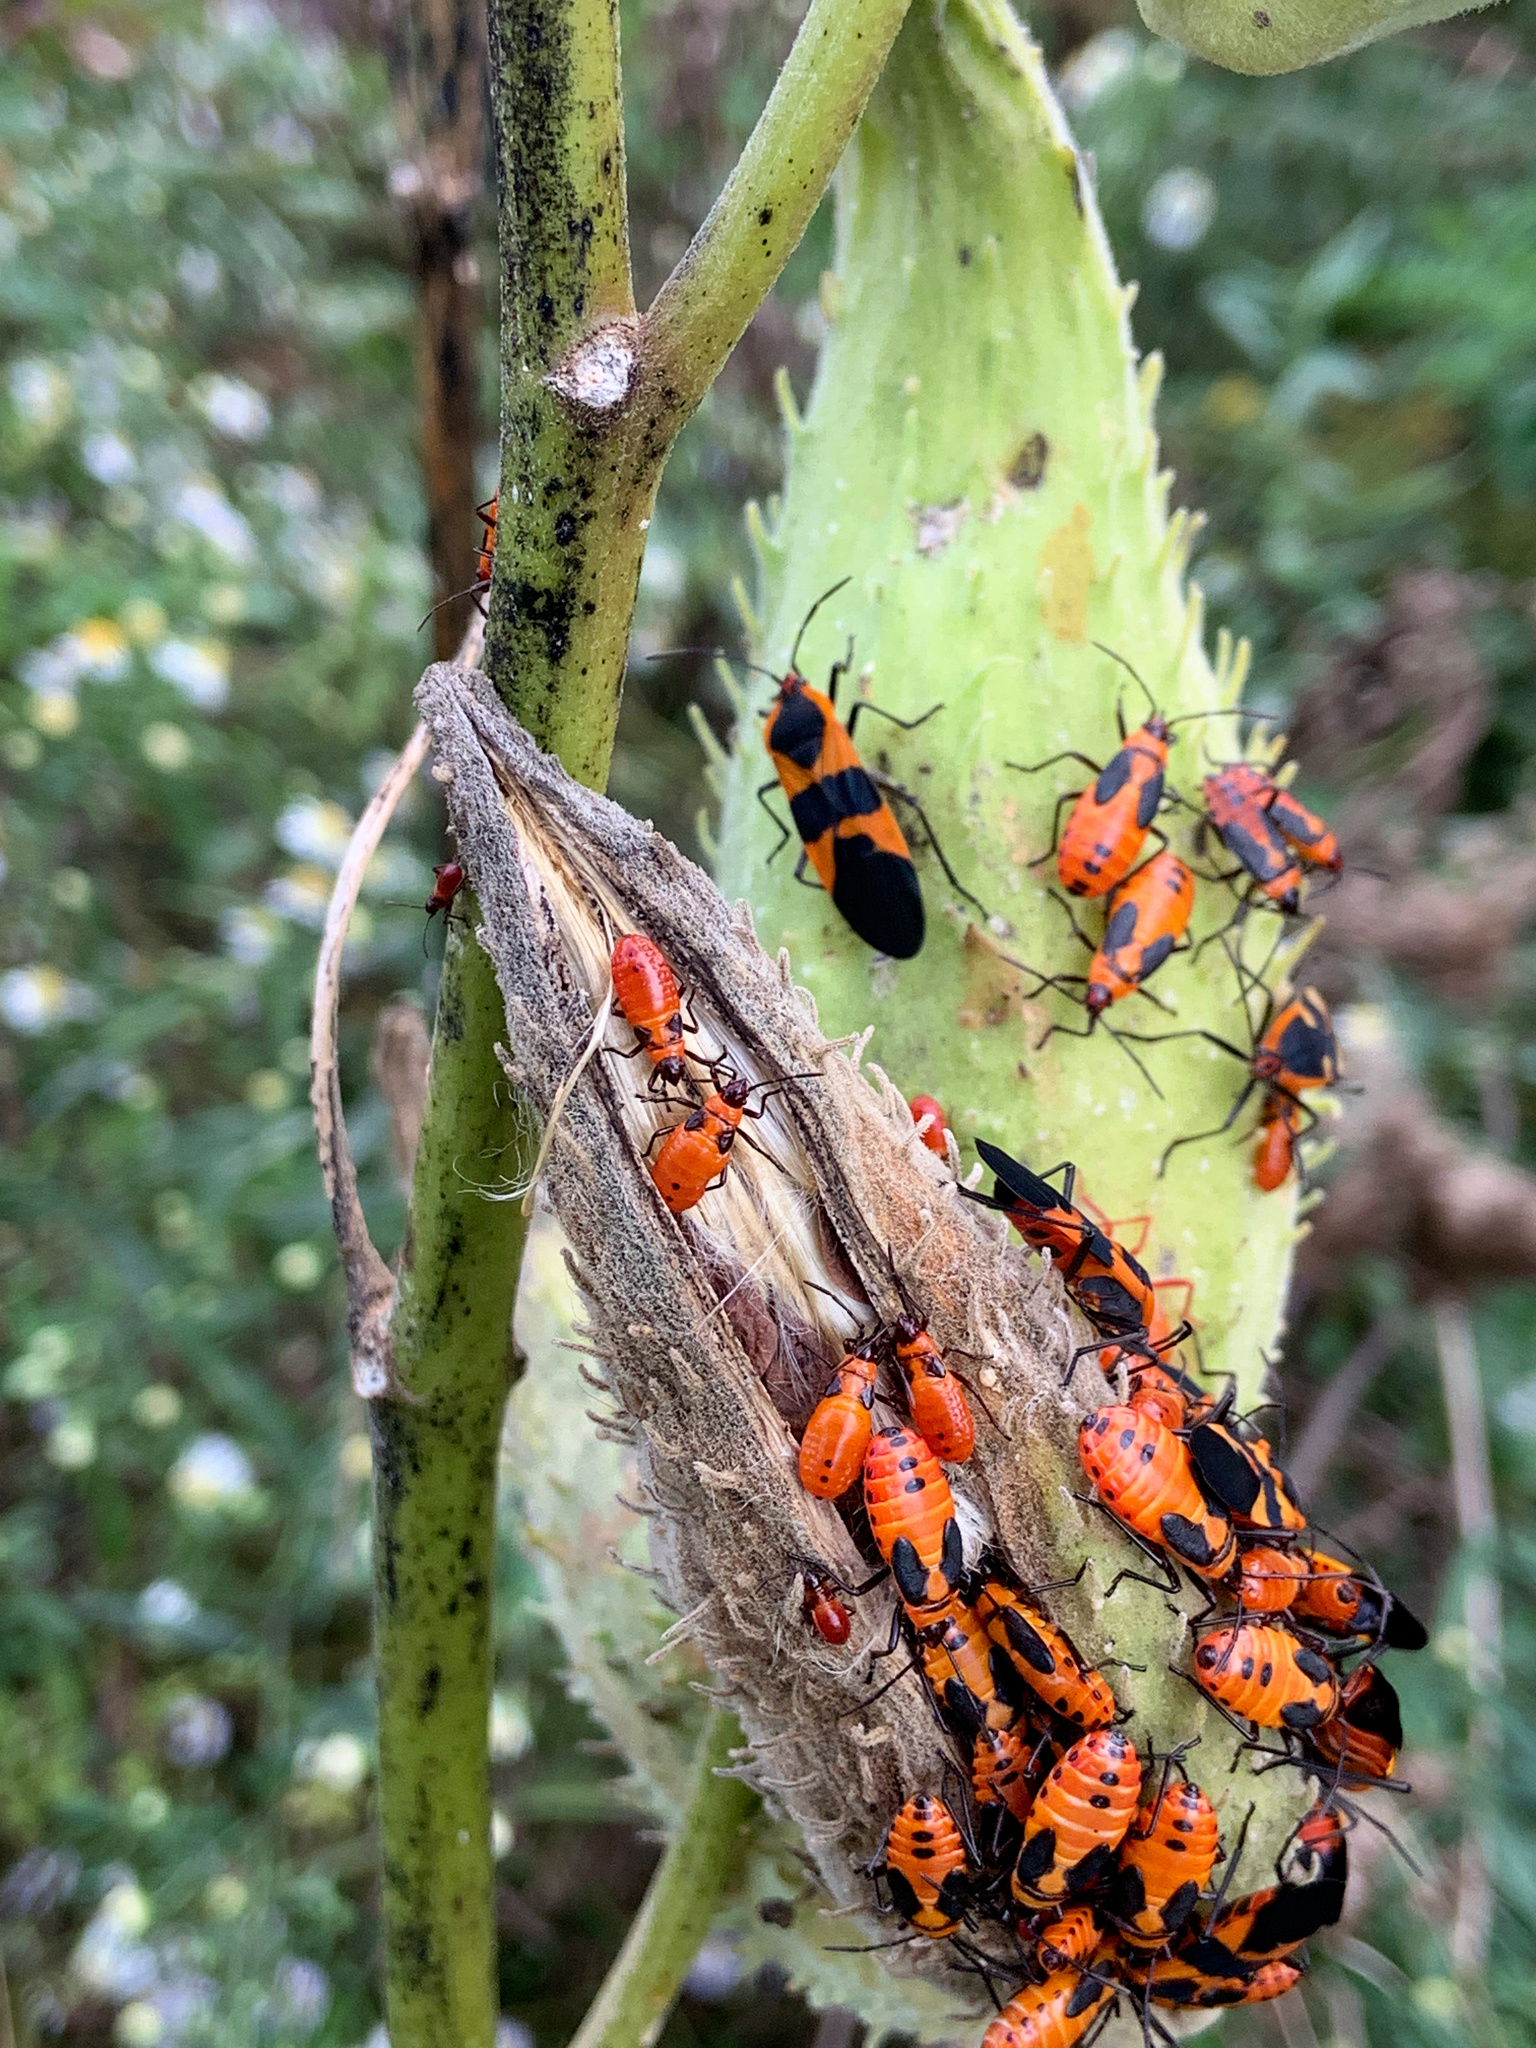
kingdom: Animalia
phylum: Arthropoda
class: Insecta
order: Hemiptera
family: Lygaeidae
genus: Oncopeltus
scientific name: Oncopeltus fasciatus
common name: Large milkweed bug
